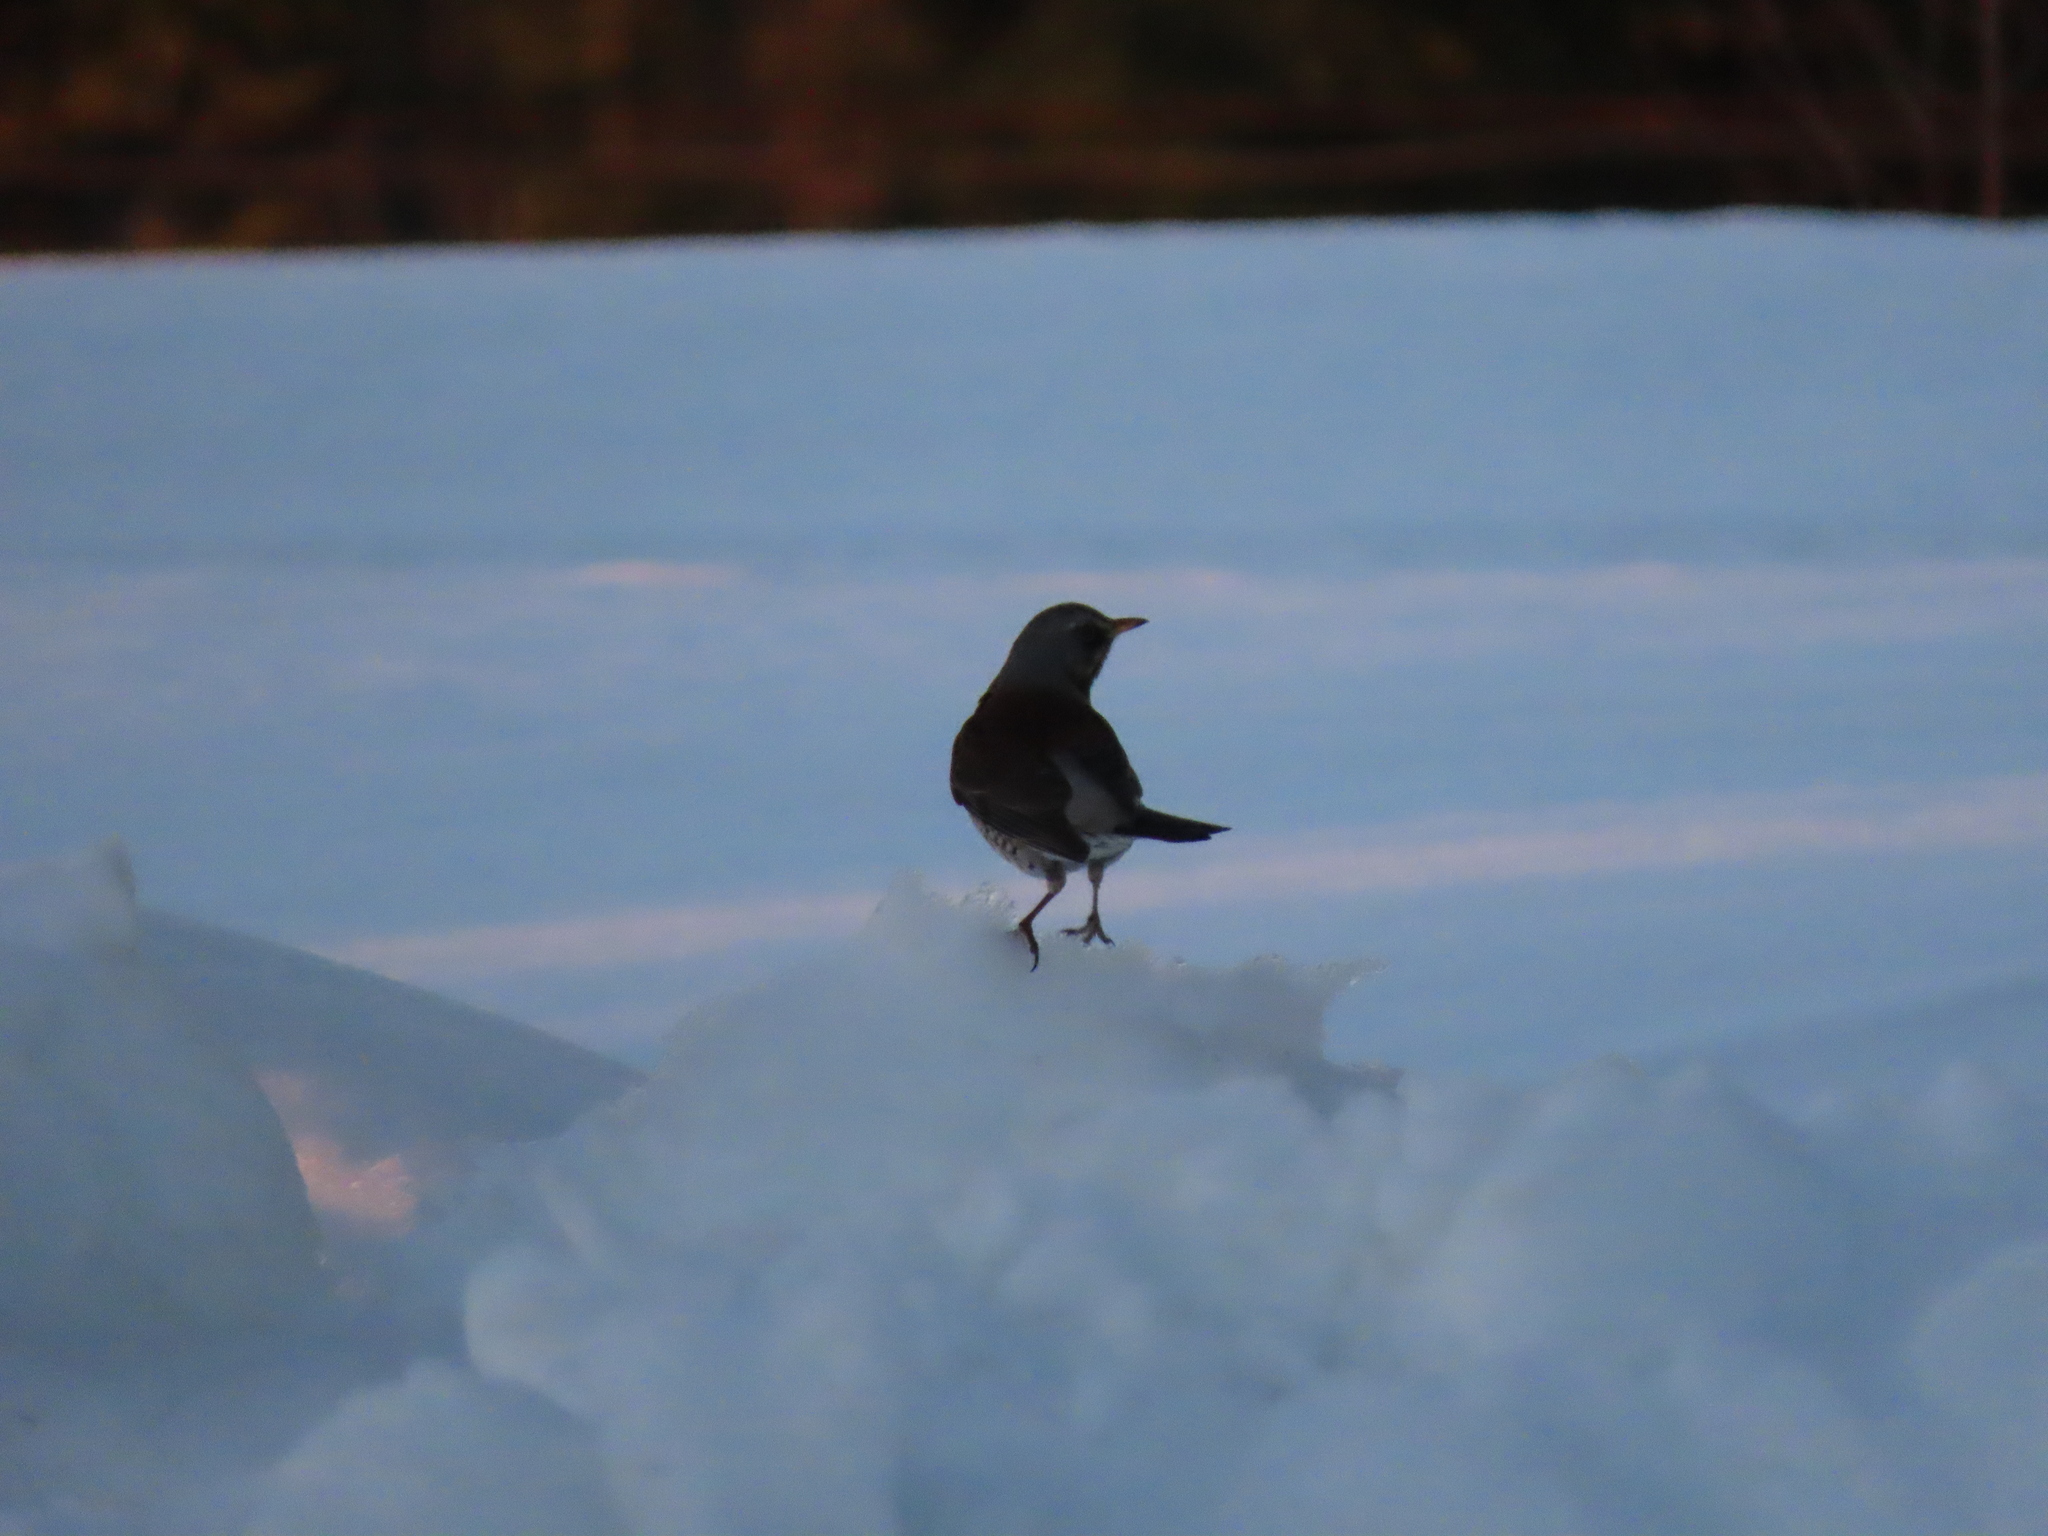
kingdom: Animalia
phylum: Chordata
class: Aves
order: Passeriformes
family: Turdidae
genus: Turdus
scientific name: Turdus pilaris
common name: Fieldfare
